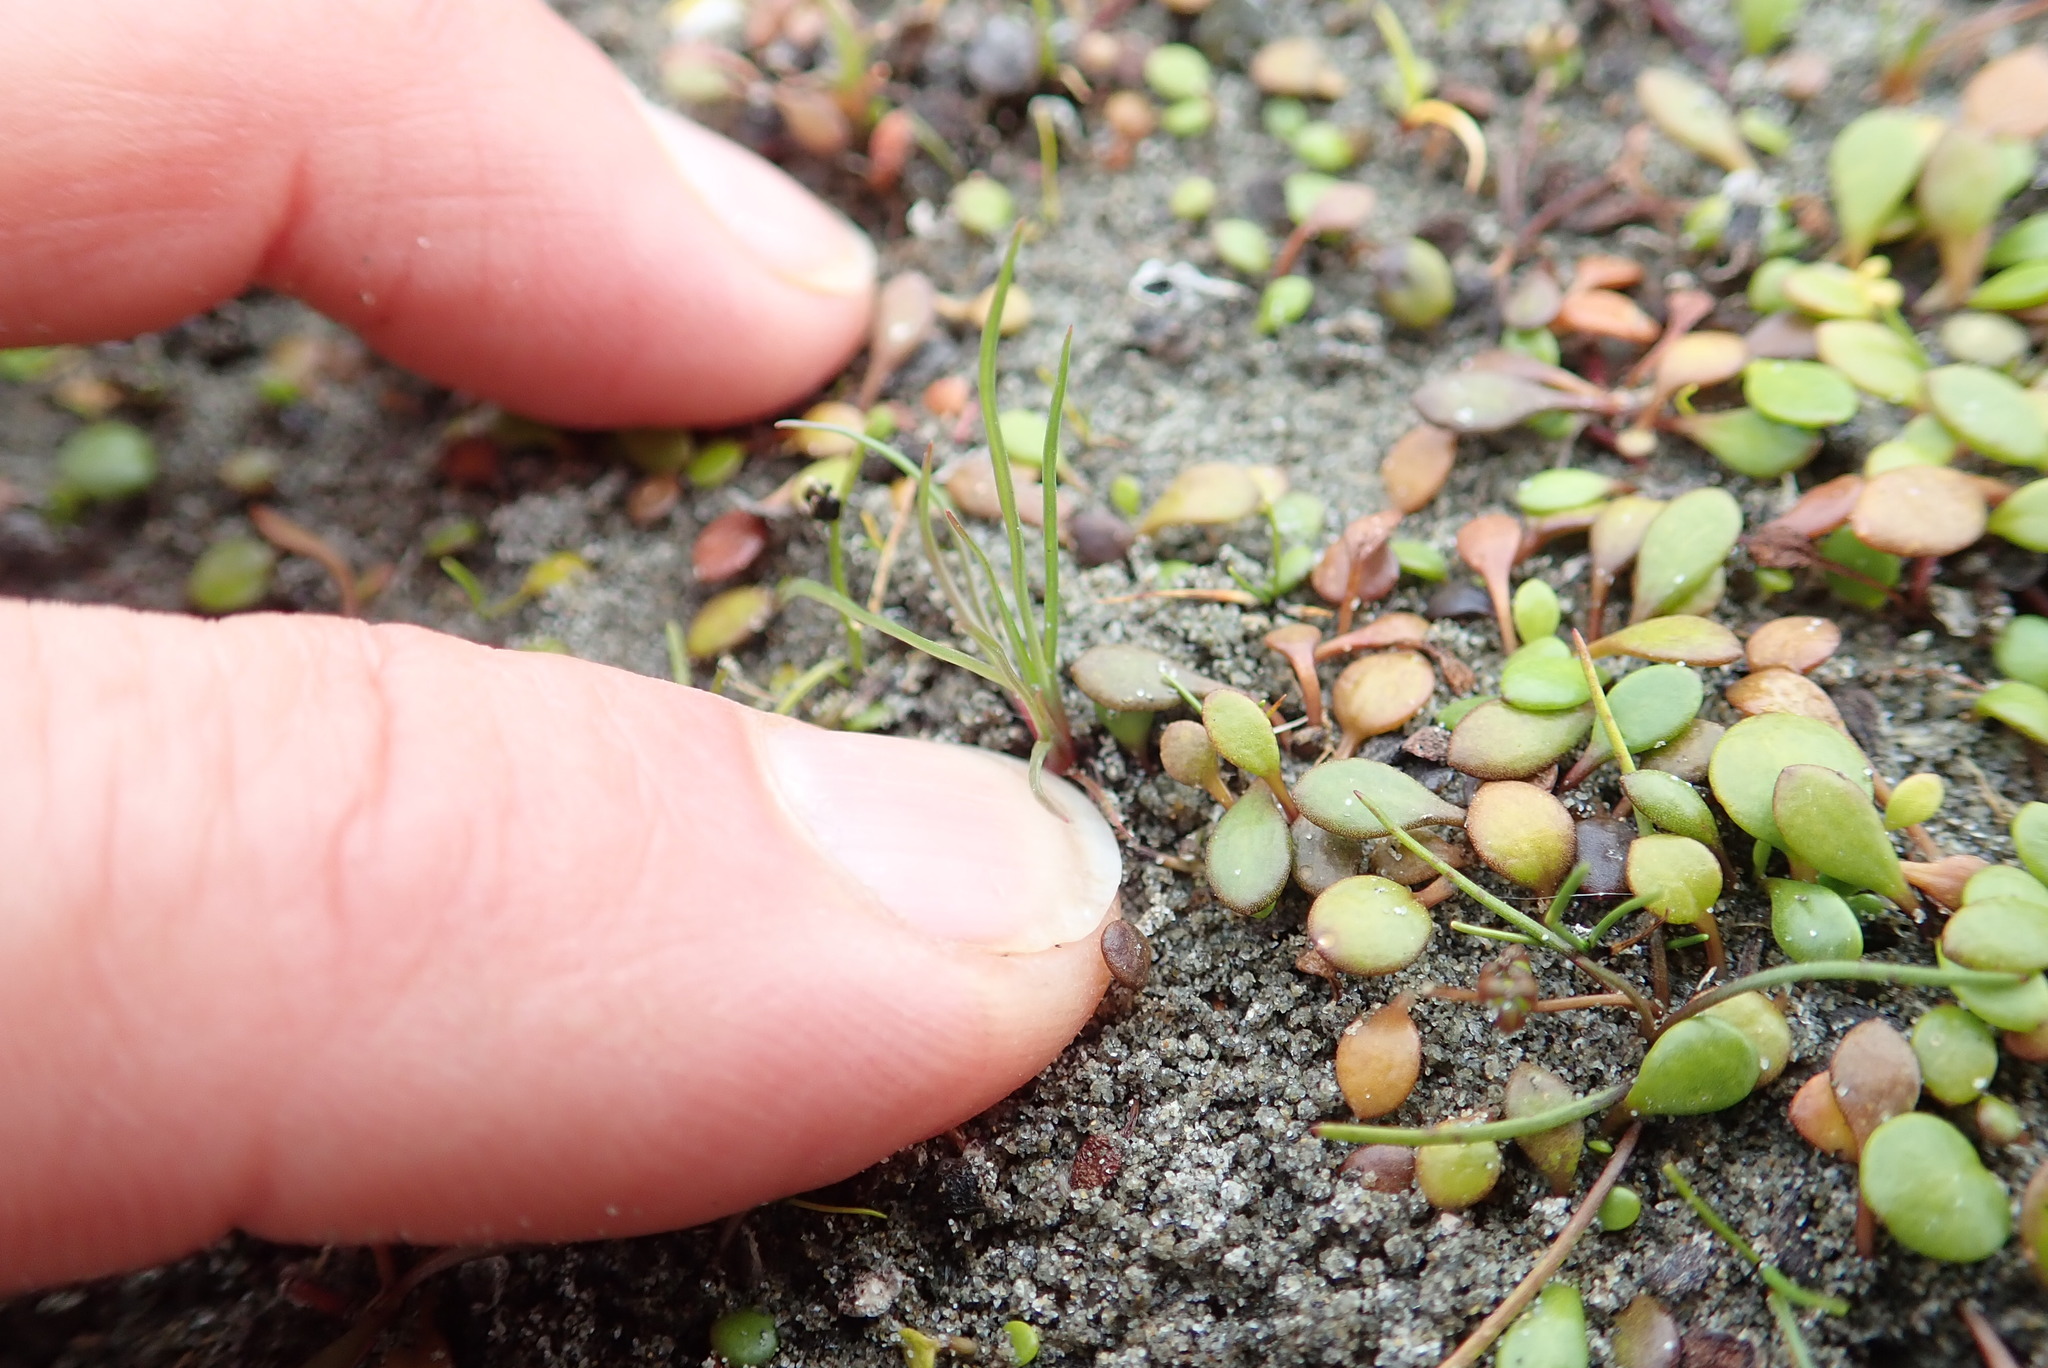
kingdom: Plantae
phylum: Tracheophyta
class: Liliopsida
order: Poales
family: Juncaceae
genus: Juncus
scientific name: Juncus caespiticius
